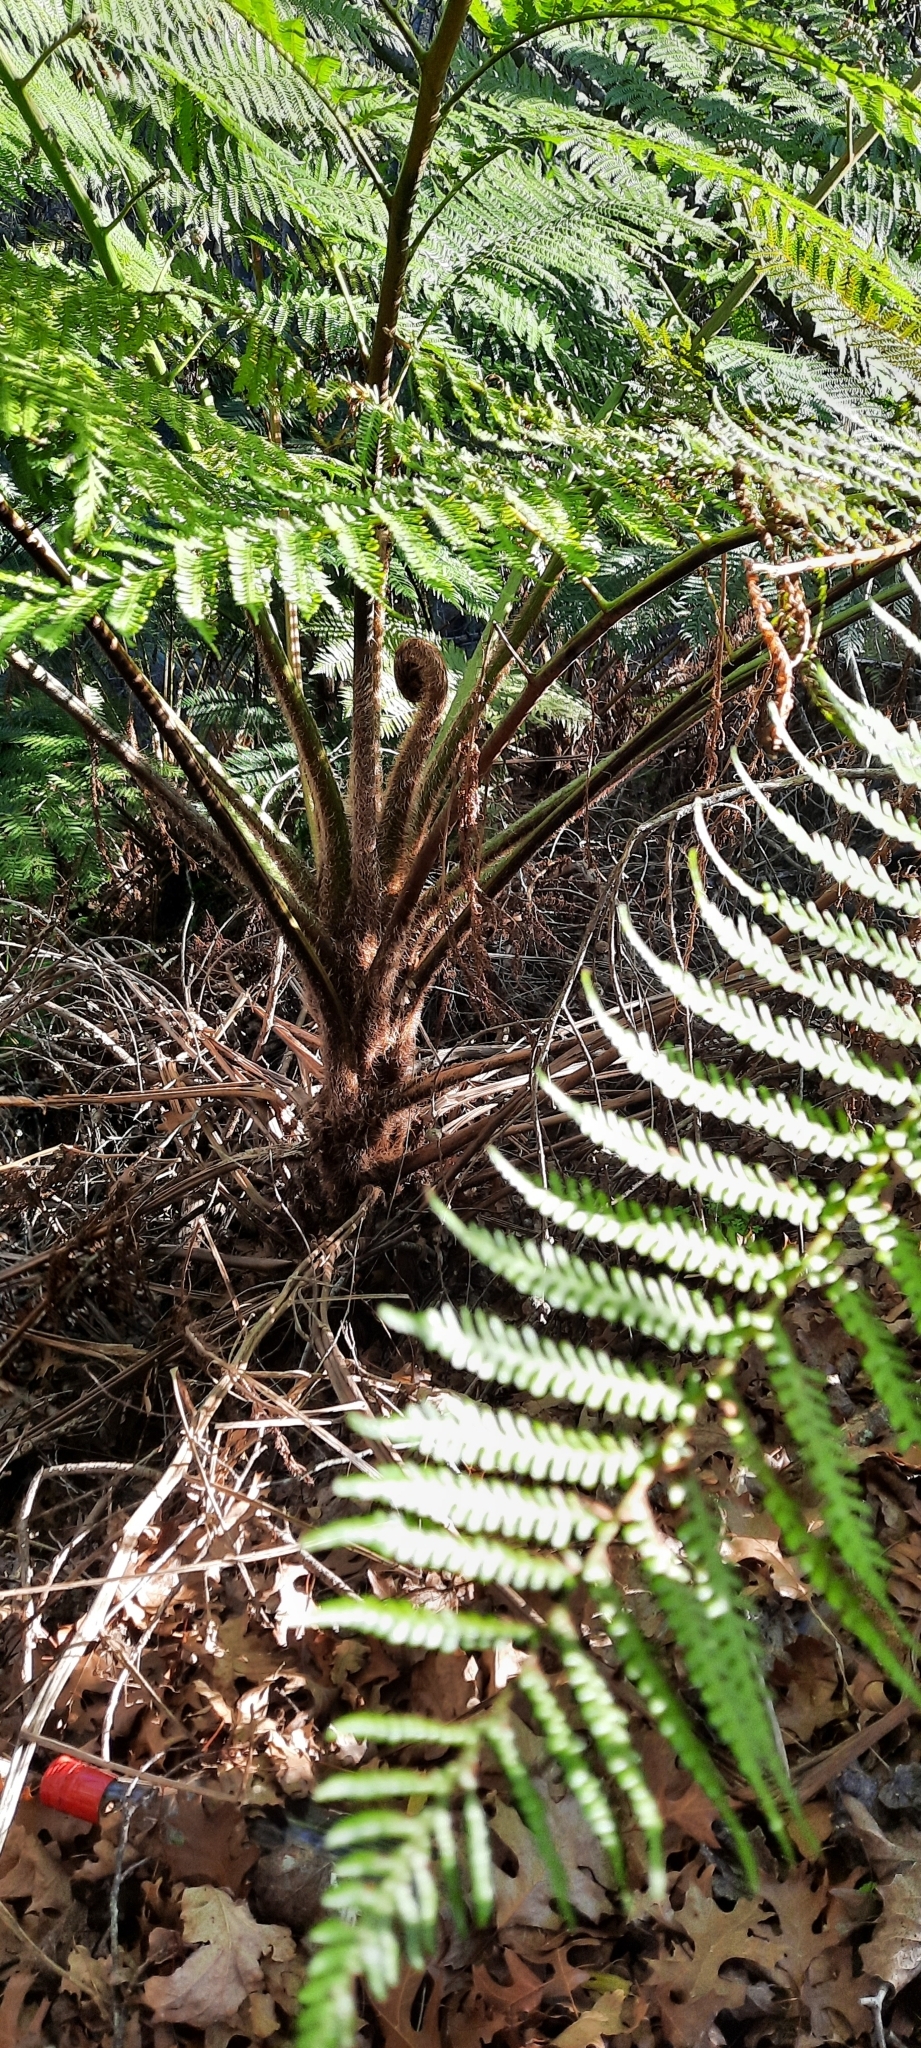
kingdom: Plantae
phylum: Tracheophyta
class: Polypodiopsida
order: Cyatheales
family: Cyatheaceae
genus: Sphaeropteris
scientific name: Sphaeropteris cooperi
